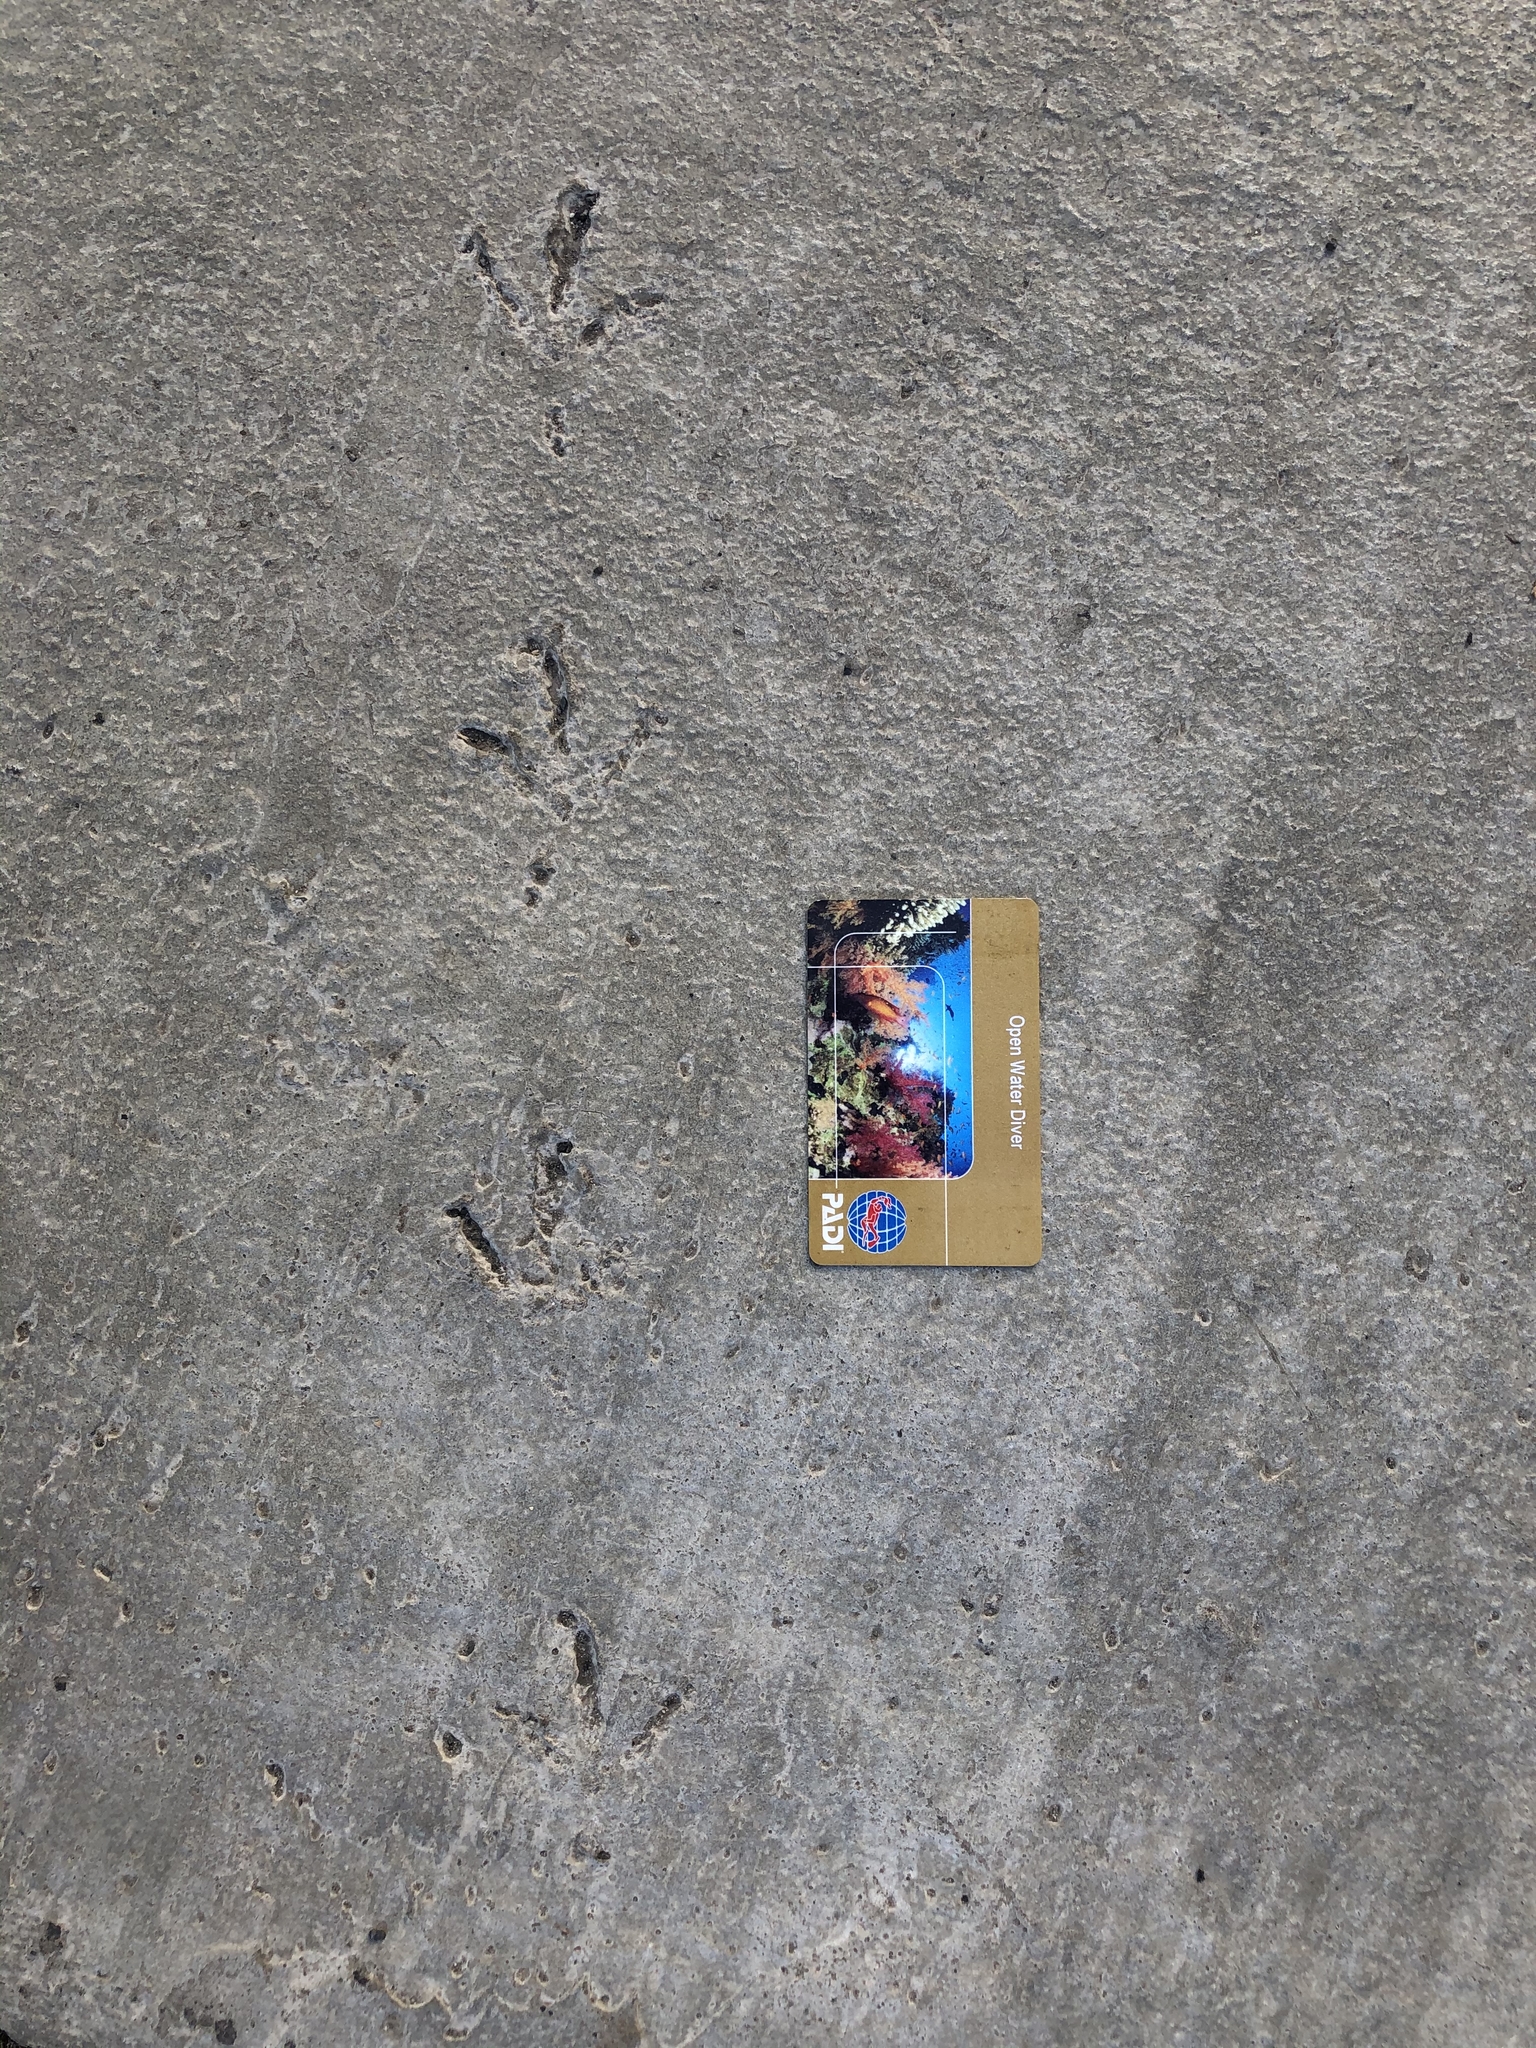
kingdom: Animalia
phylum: Chordata
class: Aves
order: Columbiformes
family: Columbidae
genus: Columba
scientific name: Columba livia
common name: Rock pigeon
